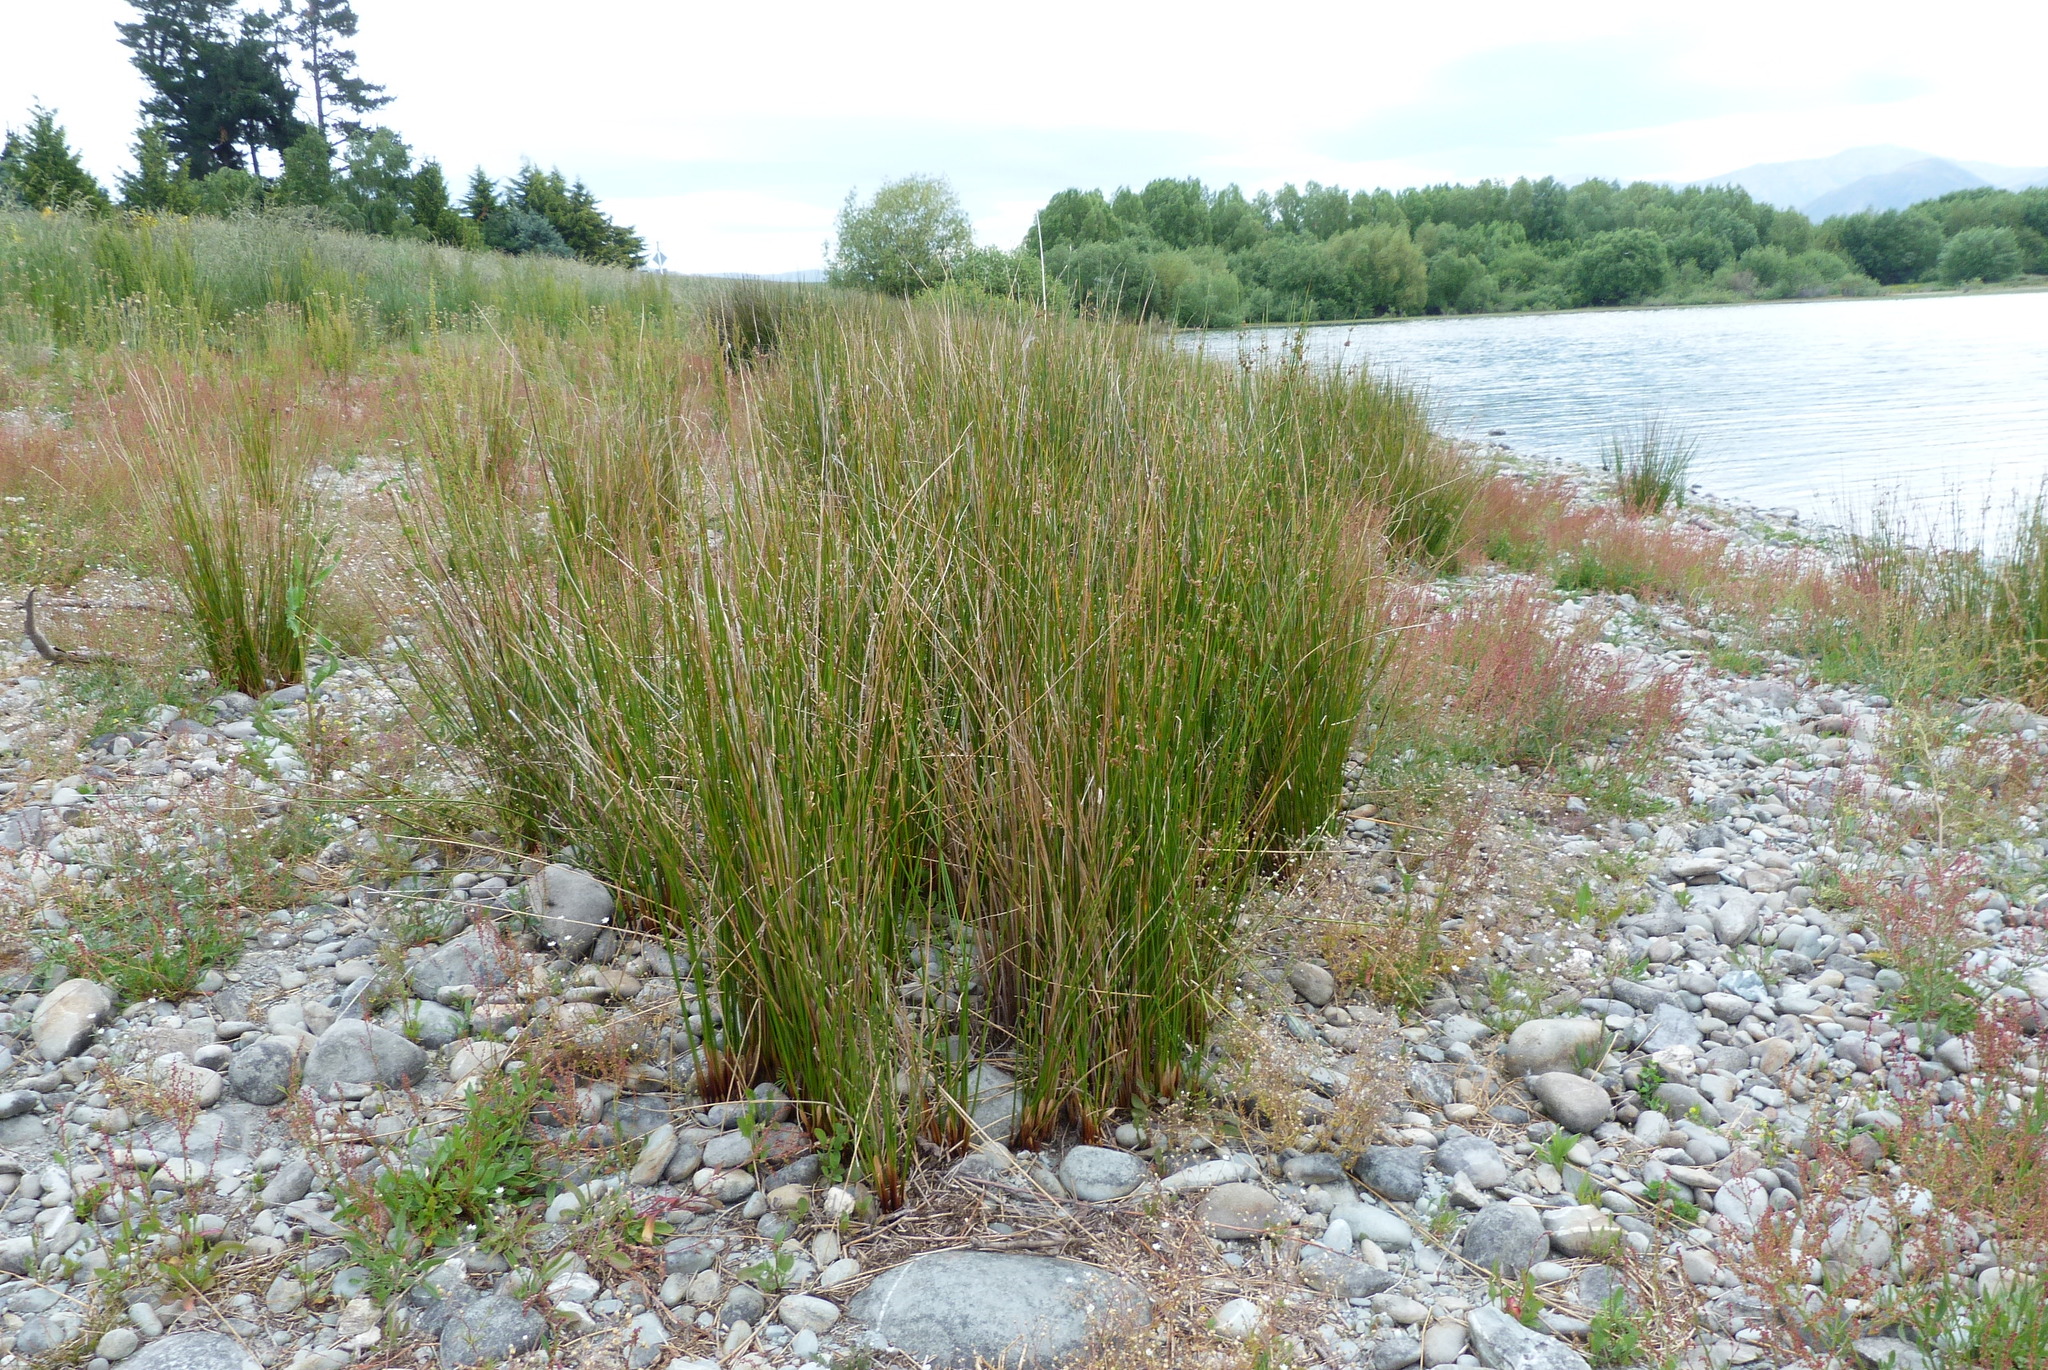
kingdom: Plantae
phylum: Tracheophyta
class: Liliopsida
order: Poales
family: Juncaceae
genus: Juncus
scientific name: Juncus edgariae
